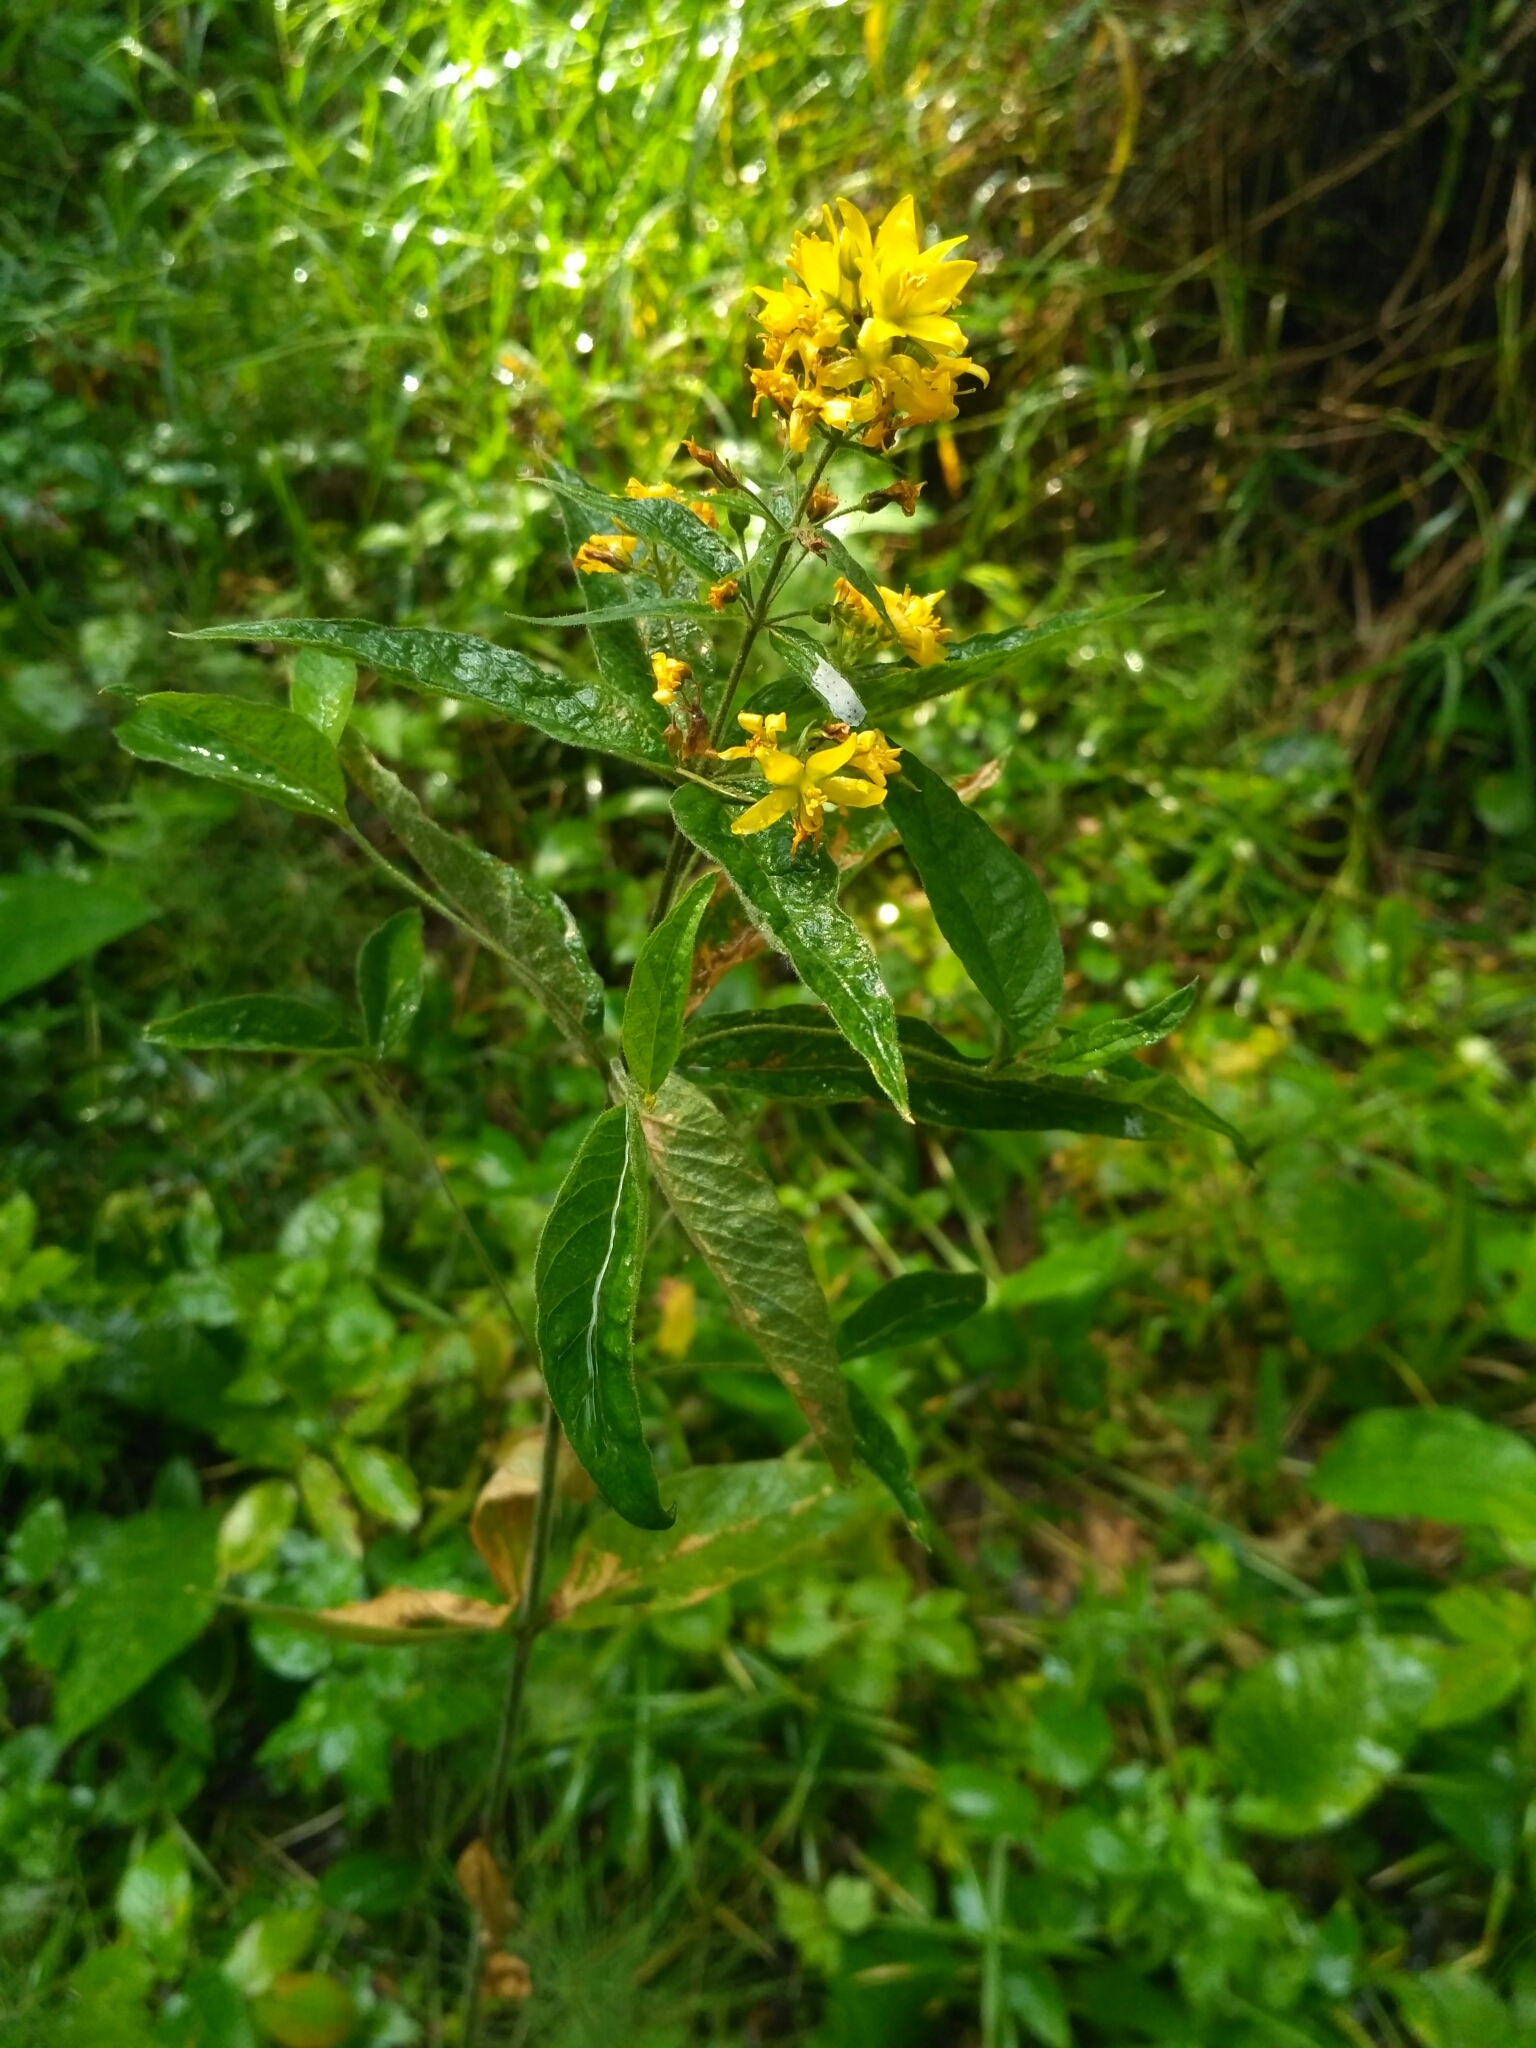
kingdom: Plantae
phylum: Tracheophyta
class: Magnoliopsida
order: Ericales
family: Primulaceae
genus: Lysimachia
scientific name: Lysimachia vulgaris
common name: Yellow loosestrife
